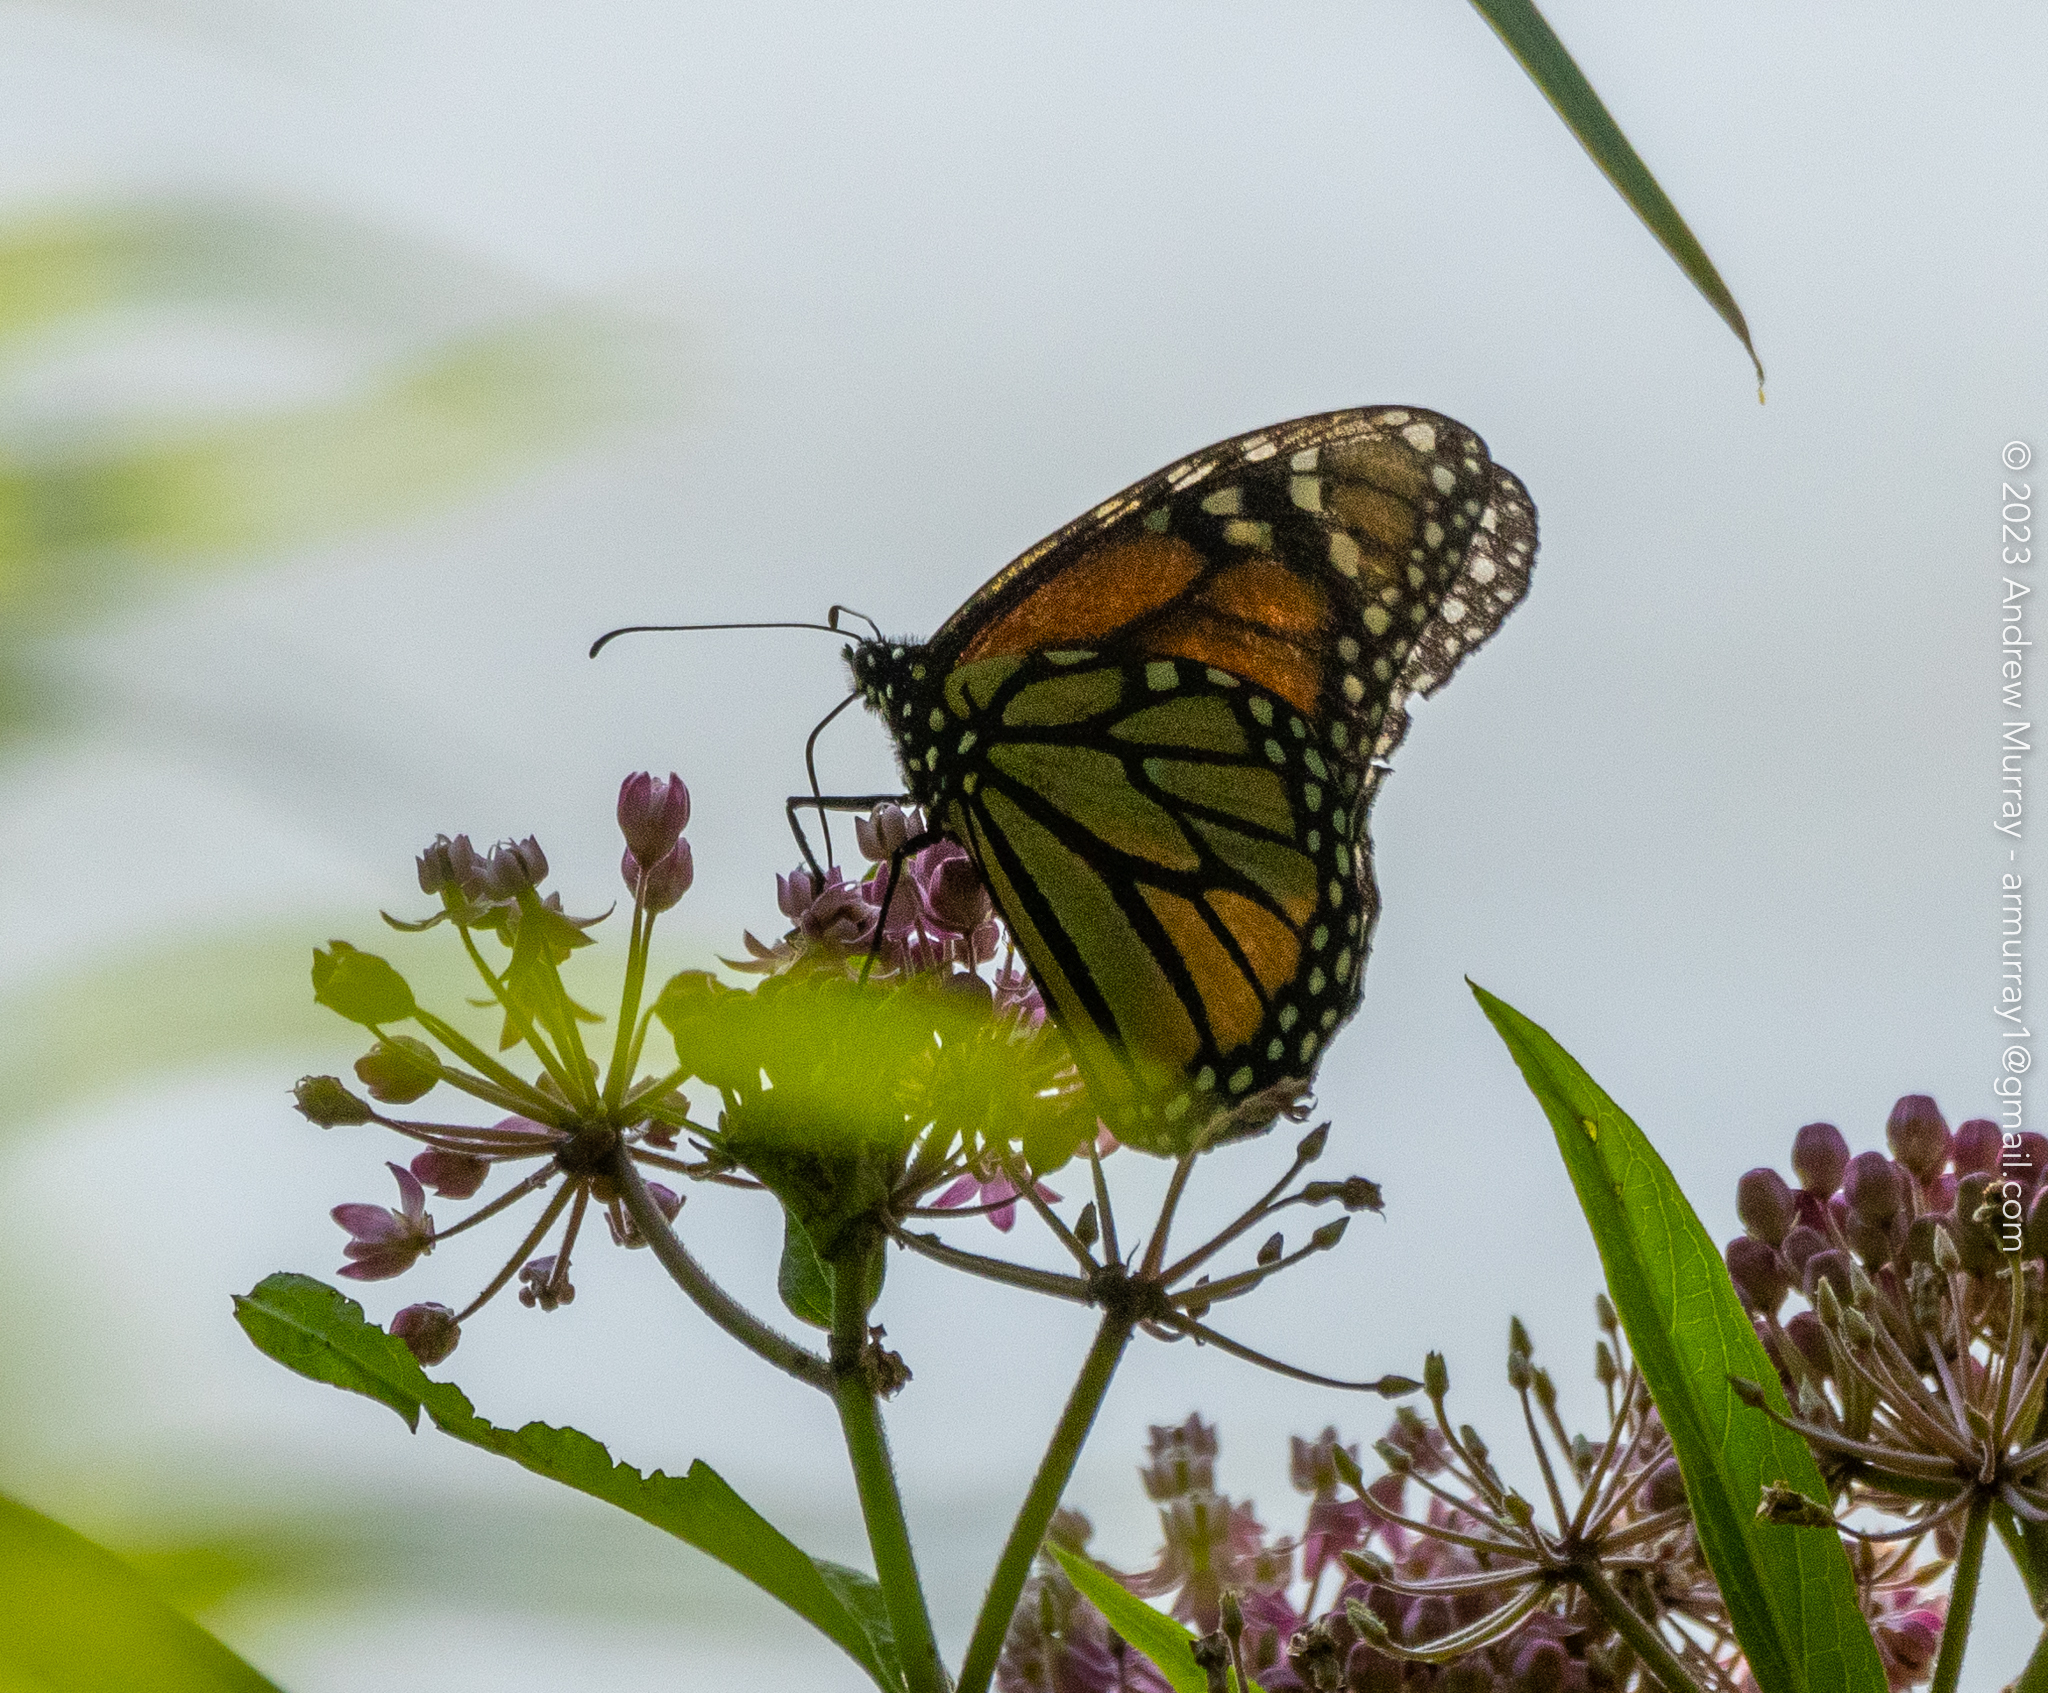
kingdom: Animalia
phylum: Arthropoda
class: Insecta
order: Lepidoptera
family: Nymphalidae
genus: Danaus
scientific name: Danaus plexippus
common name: Monarch
